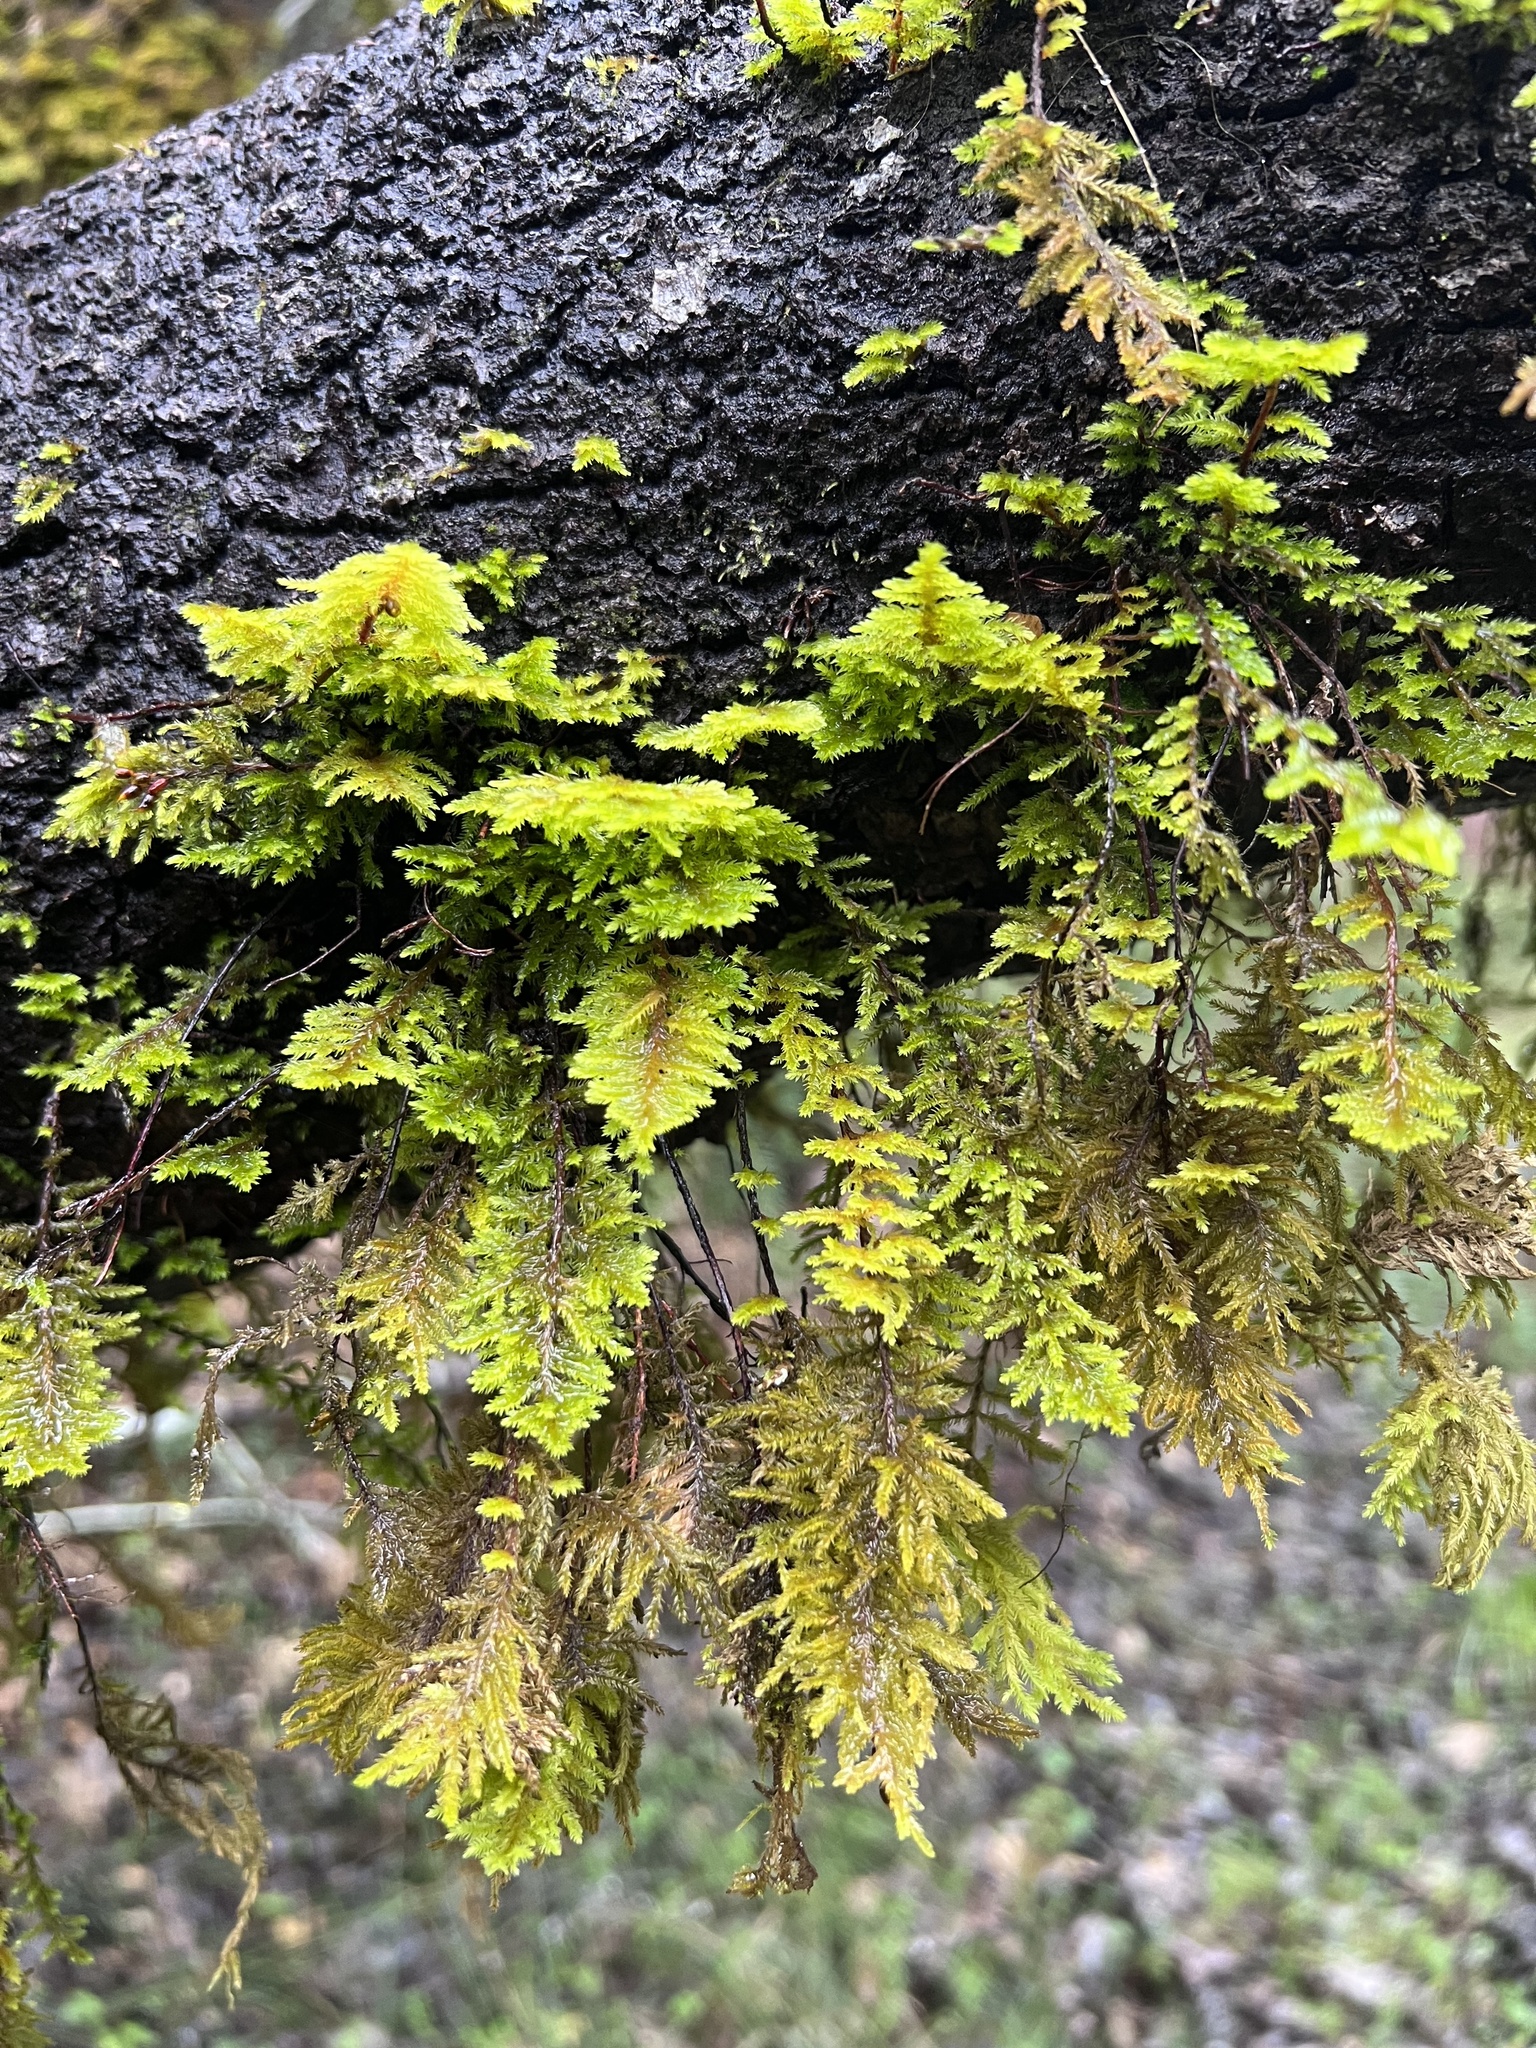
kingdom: Plantae
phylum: Bryophyta
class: Bryopsida
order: Hypnales
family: Cryphaeaceae
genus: Dendroalsia
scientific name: Dendroalsia abietina
